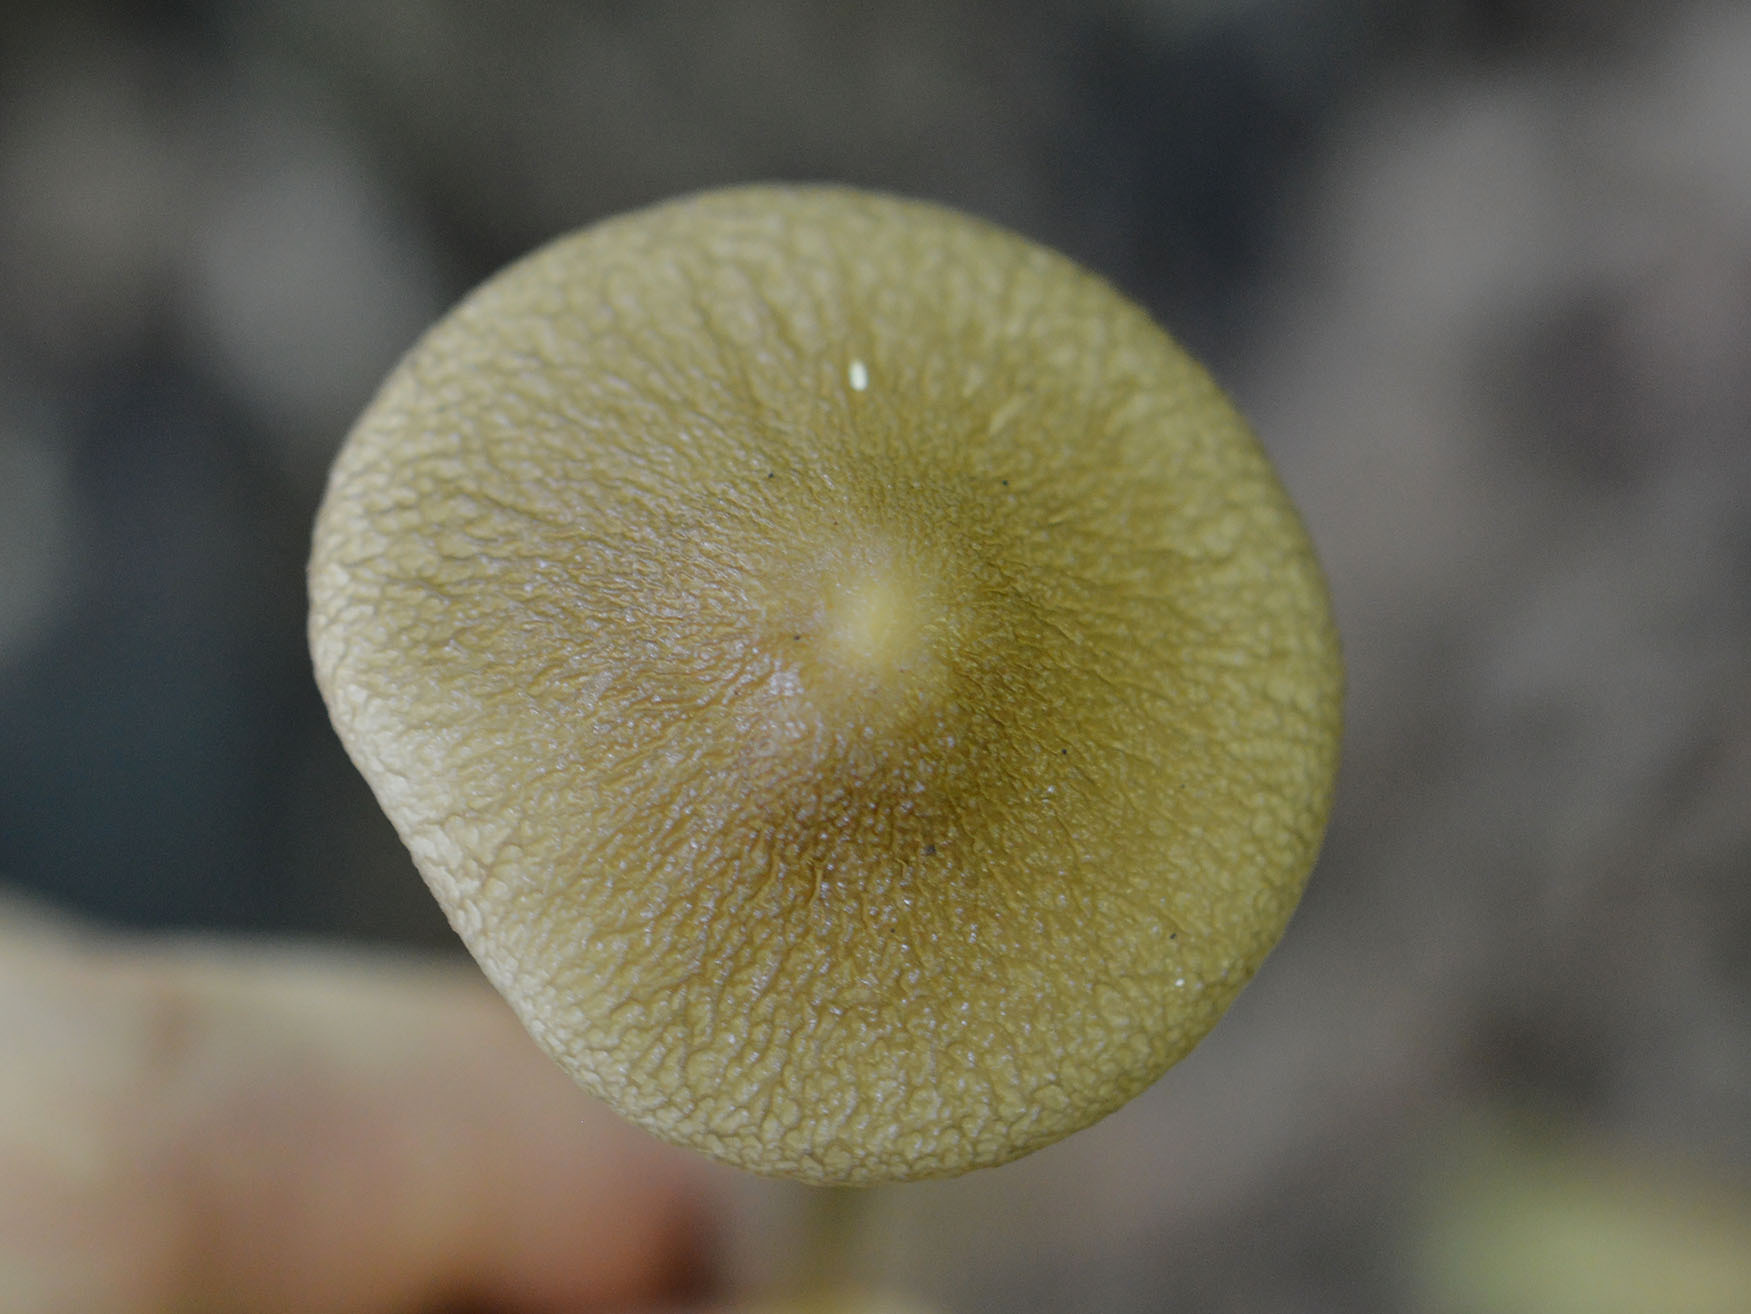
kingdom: Fungi
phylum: Basidiomycota
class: Agaricomycetes
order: Agaricales
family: Physalacriaceae
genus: Hymenopellis
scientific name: Hymenopellis radicata
